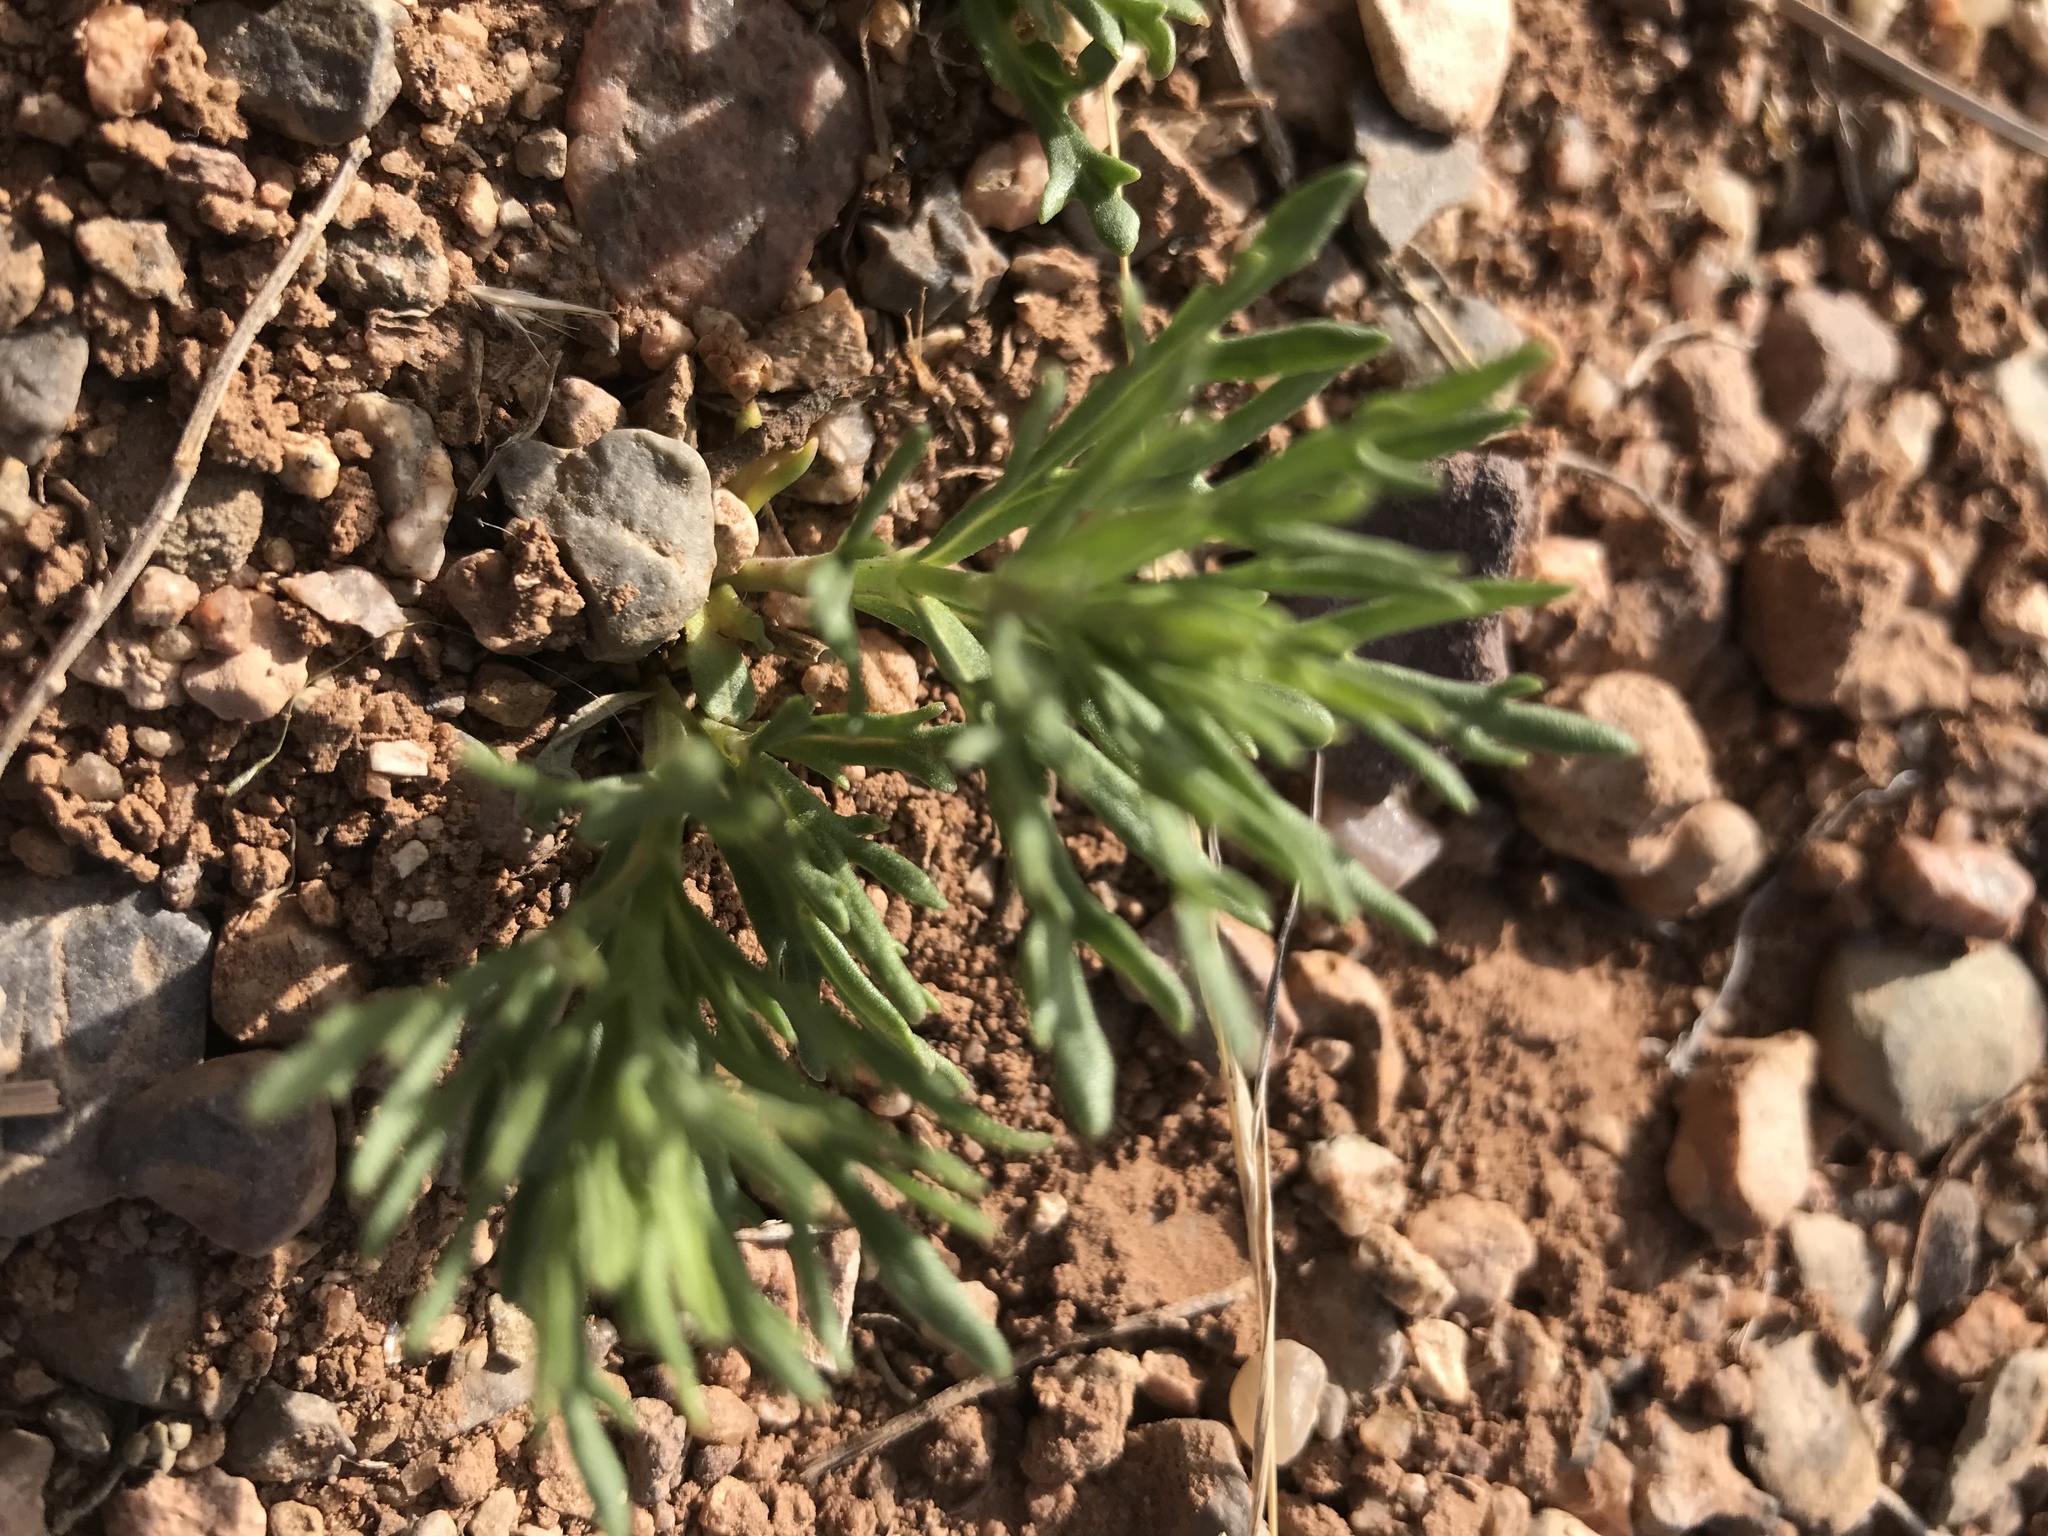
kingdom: Plantae
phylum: Tracheophyta
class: Magnoliopsida
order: Lamiales
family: Lamiaceae
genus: Teucrium
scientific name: Teucrium laciniatum
